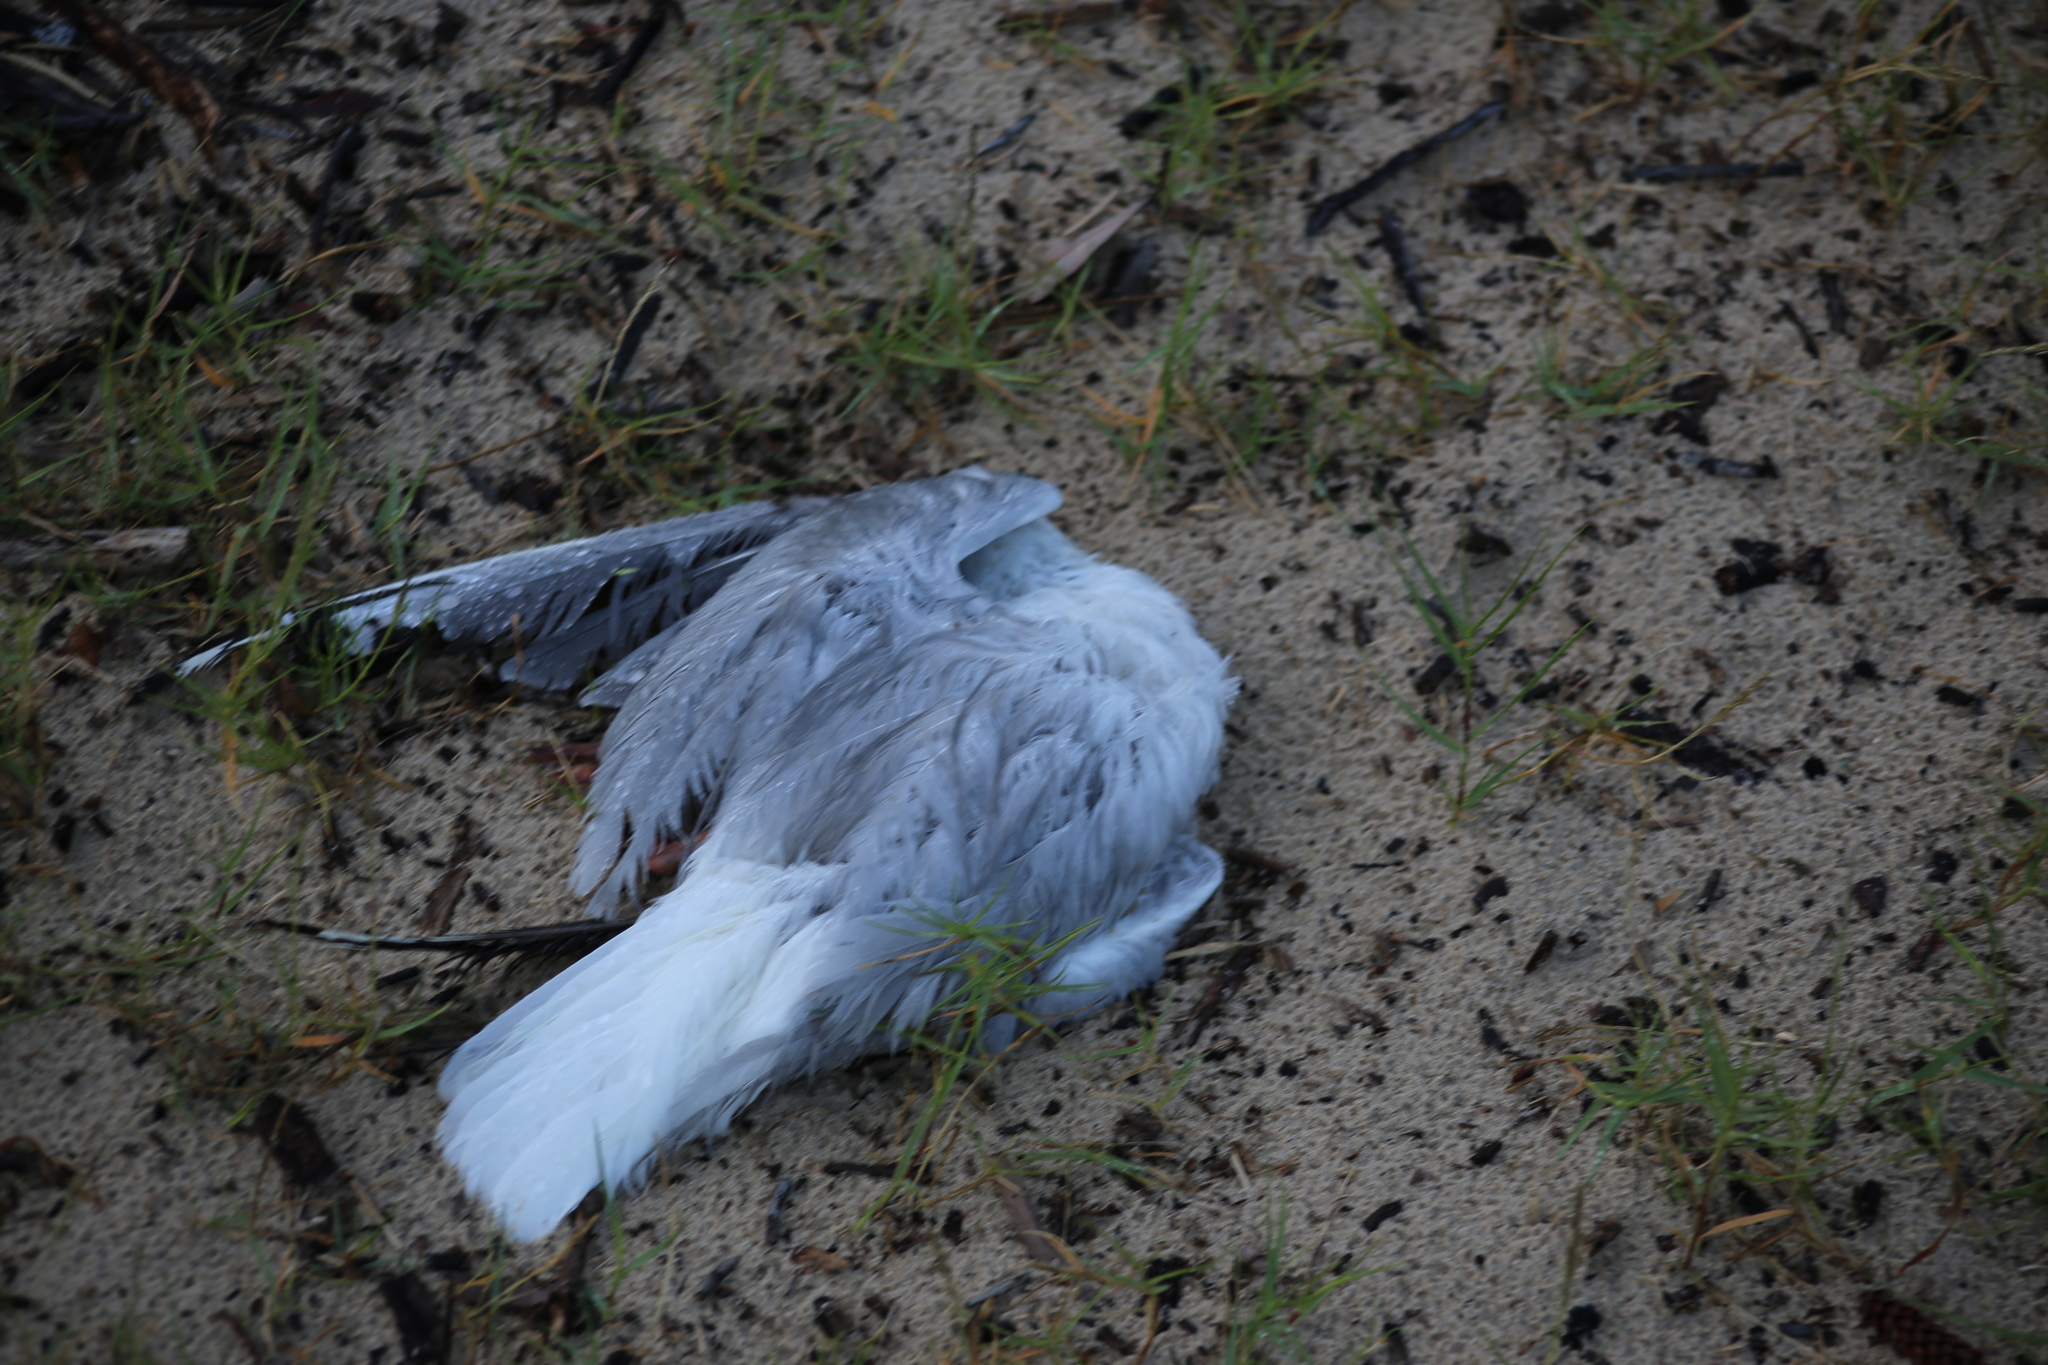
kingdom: Animalia
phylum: Chordata
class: Aves
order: Charadriiformes
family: Laridae
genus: Chroicocephalus
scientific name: Chroicocephalus novaehollandiae
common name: Silver gull
